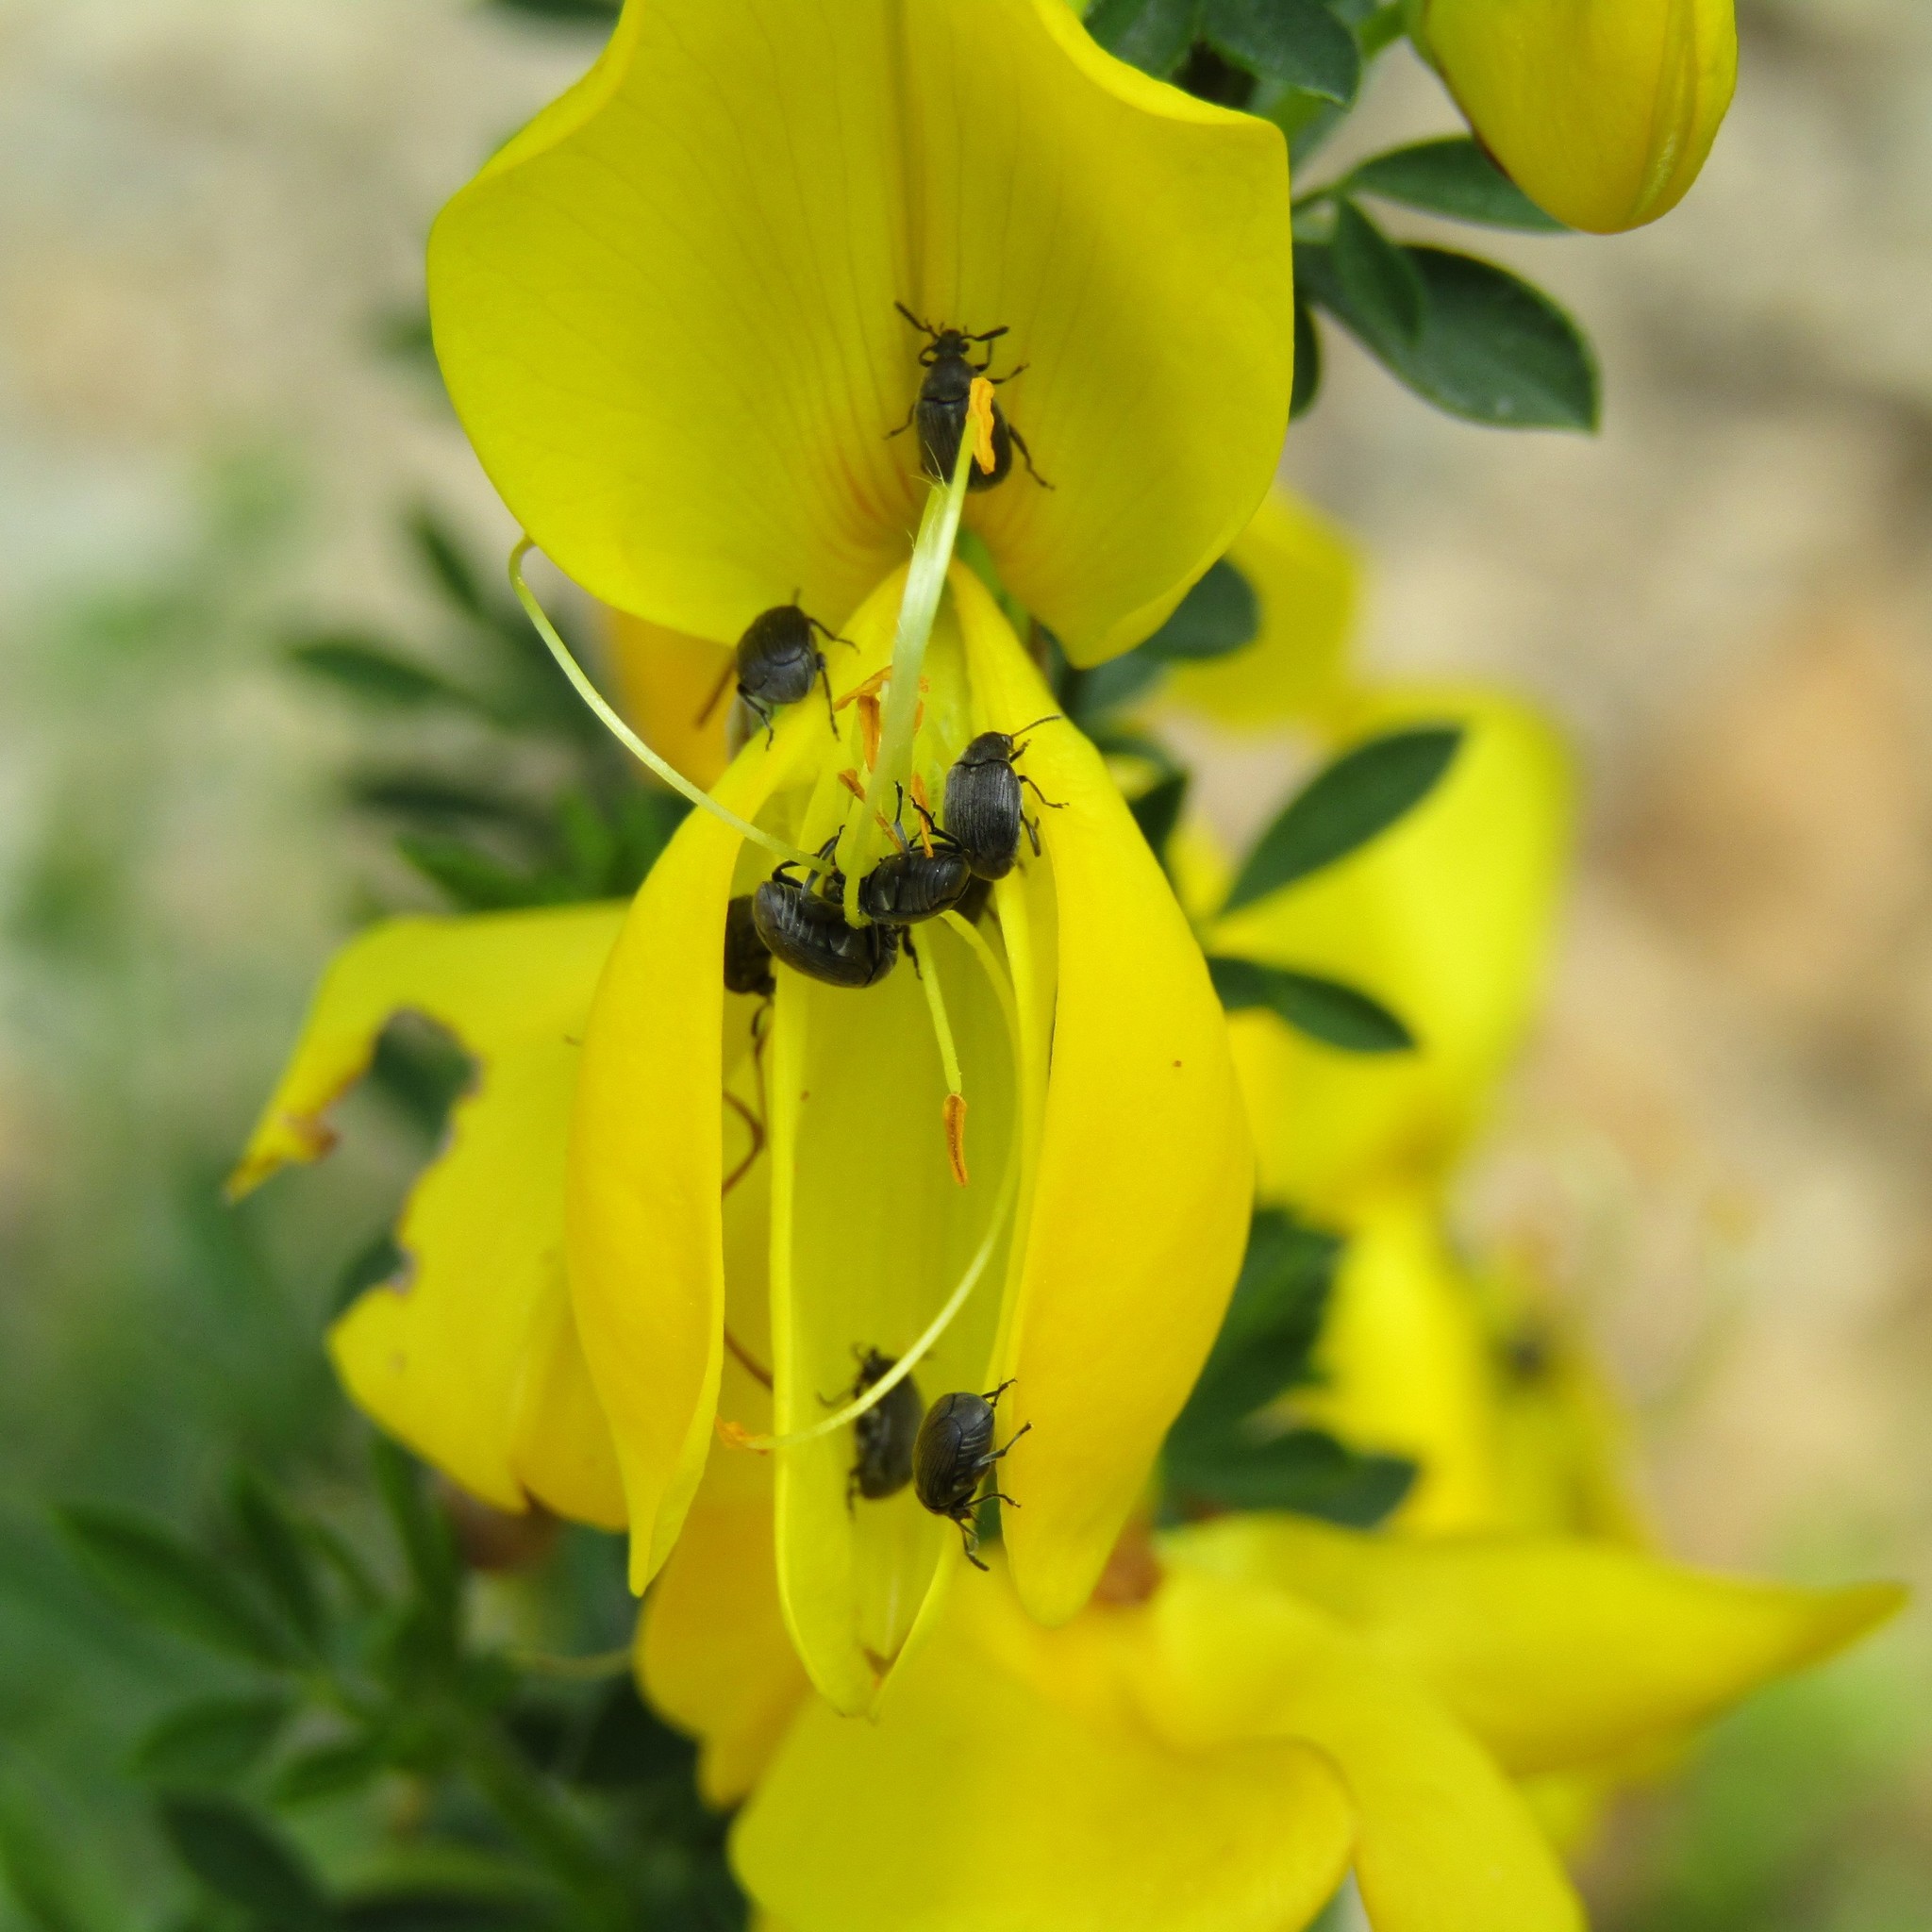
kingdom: Animalia
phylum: Arthropoda
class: Insecta
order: Coleoptera
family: Chrysomelidae
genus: Bruchidius
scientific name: Bruchidius villosus
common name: Scotch broom bruchid
